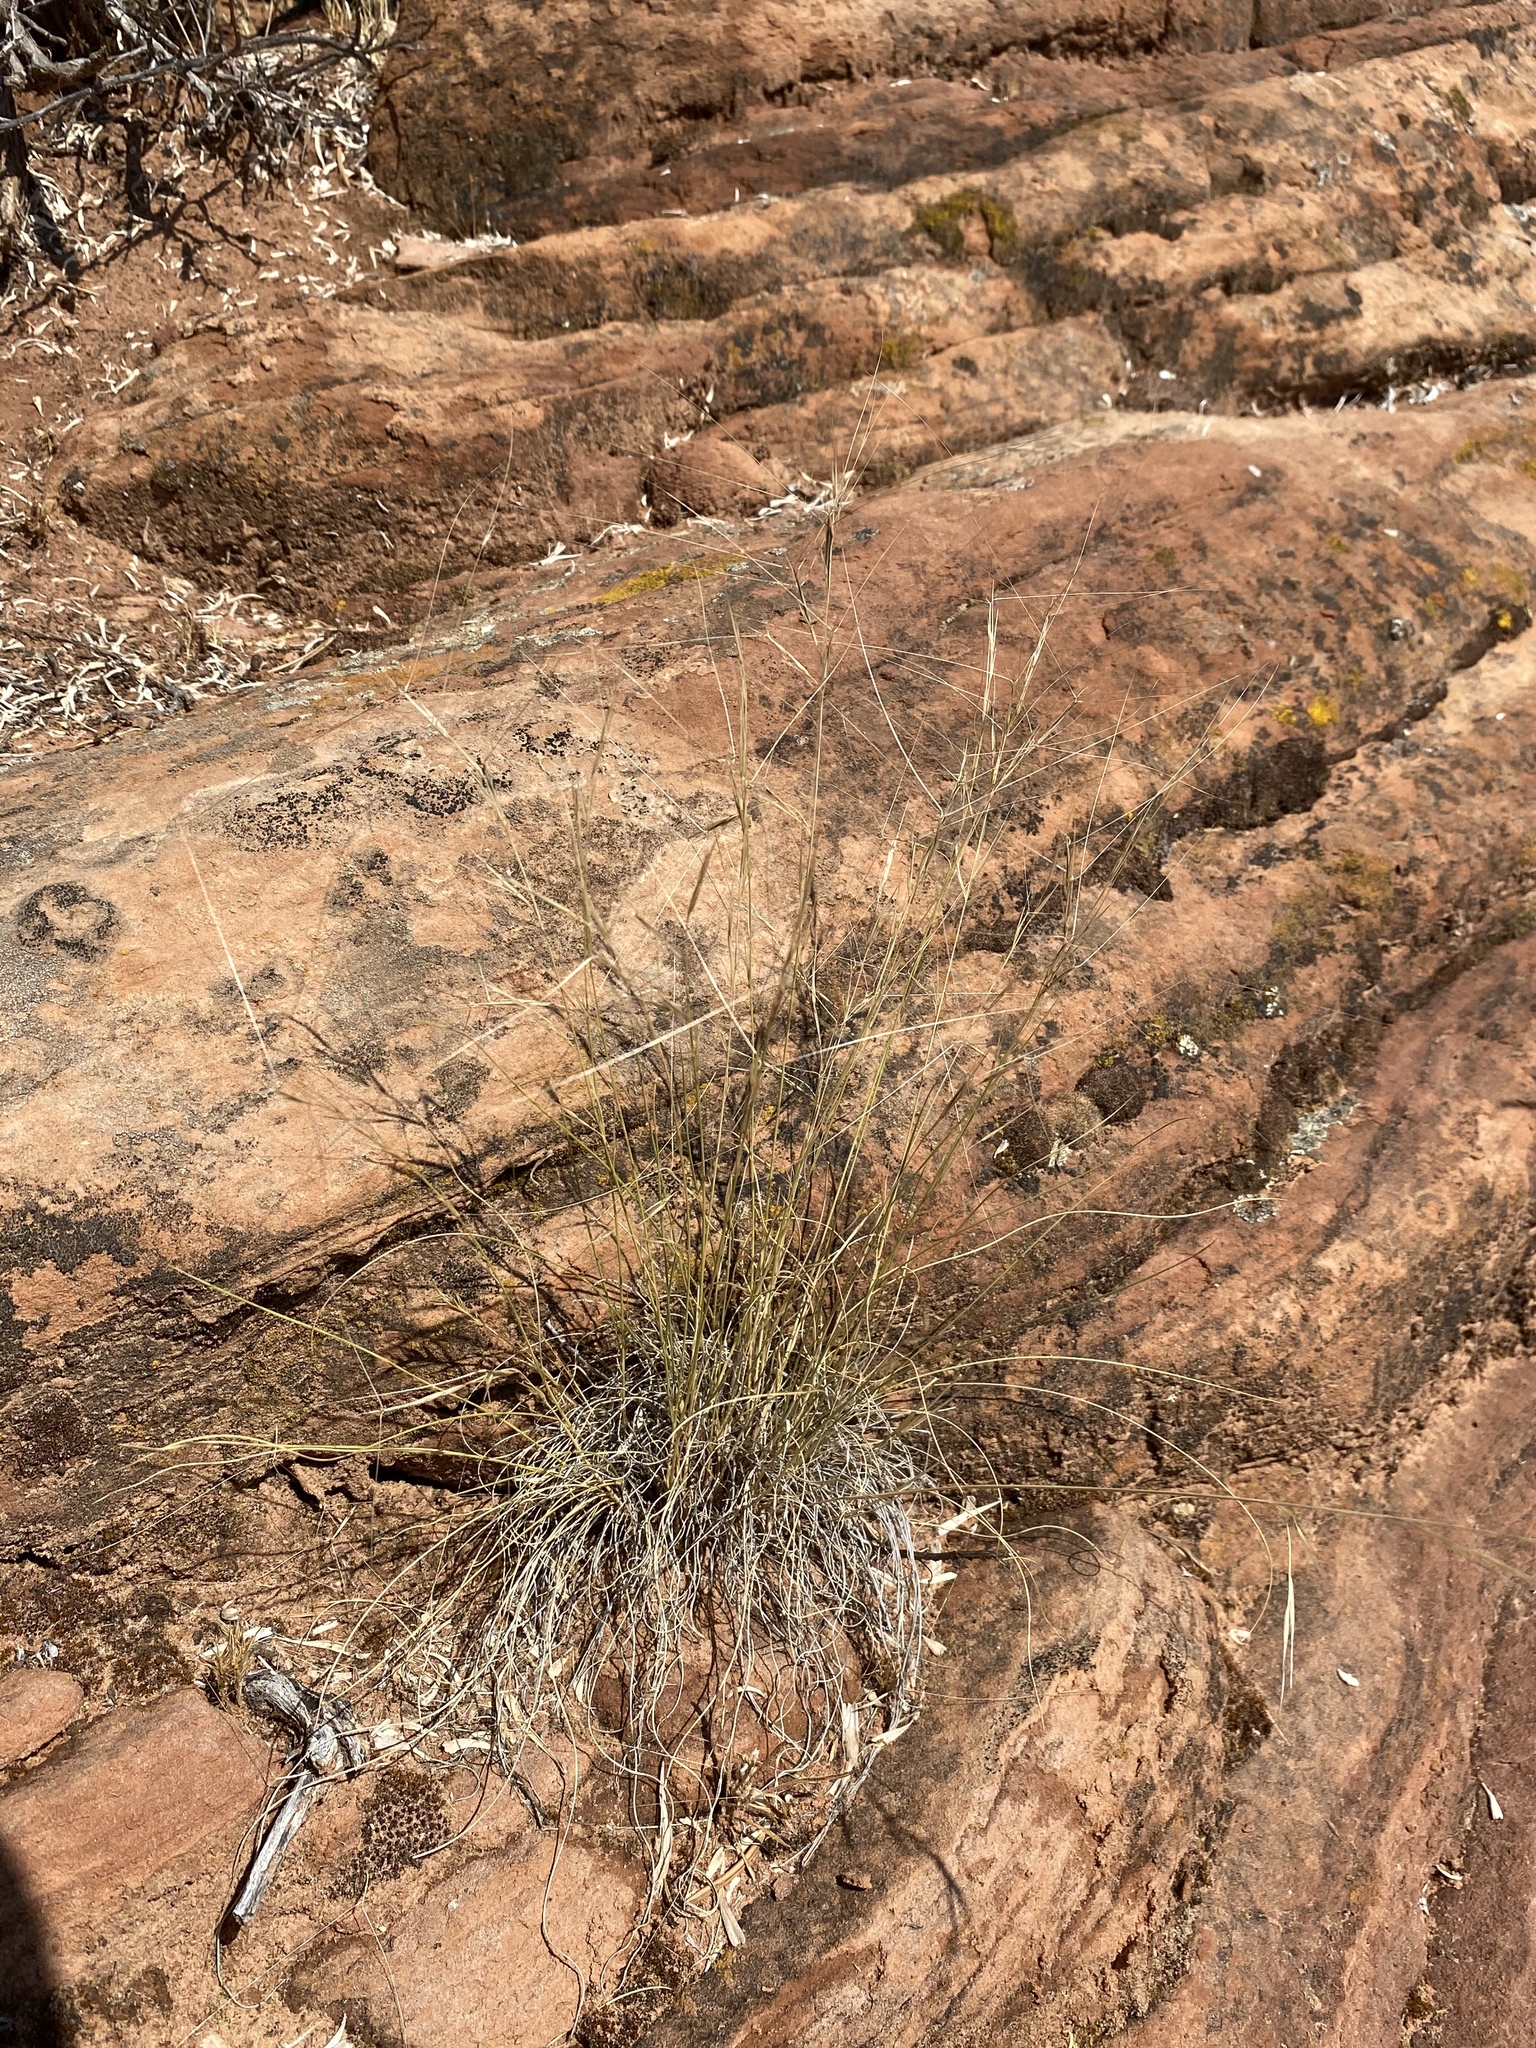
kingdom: Plantae
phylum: Tracheophyta
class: Liliopsida
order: Poales
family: Poaceae
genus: Aristida
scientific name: Aristida purpurea
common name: Purple threeawn
